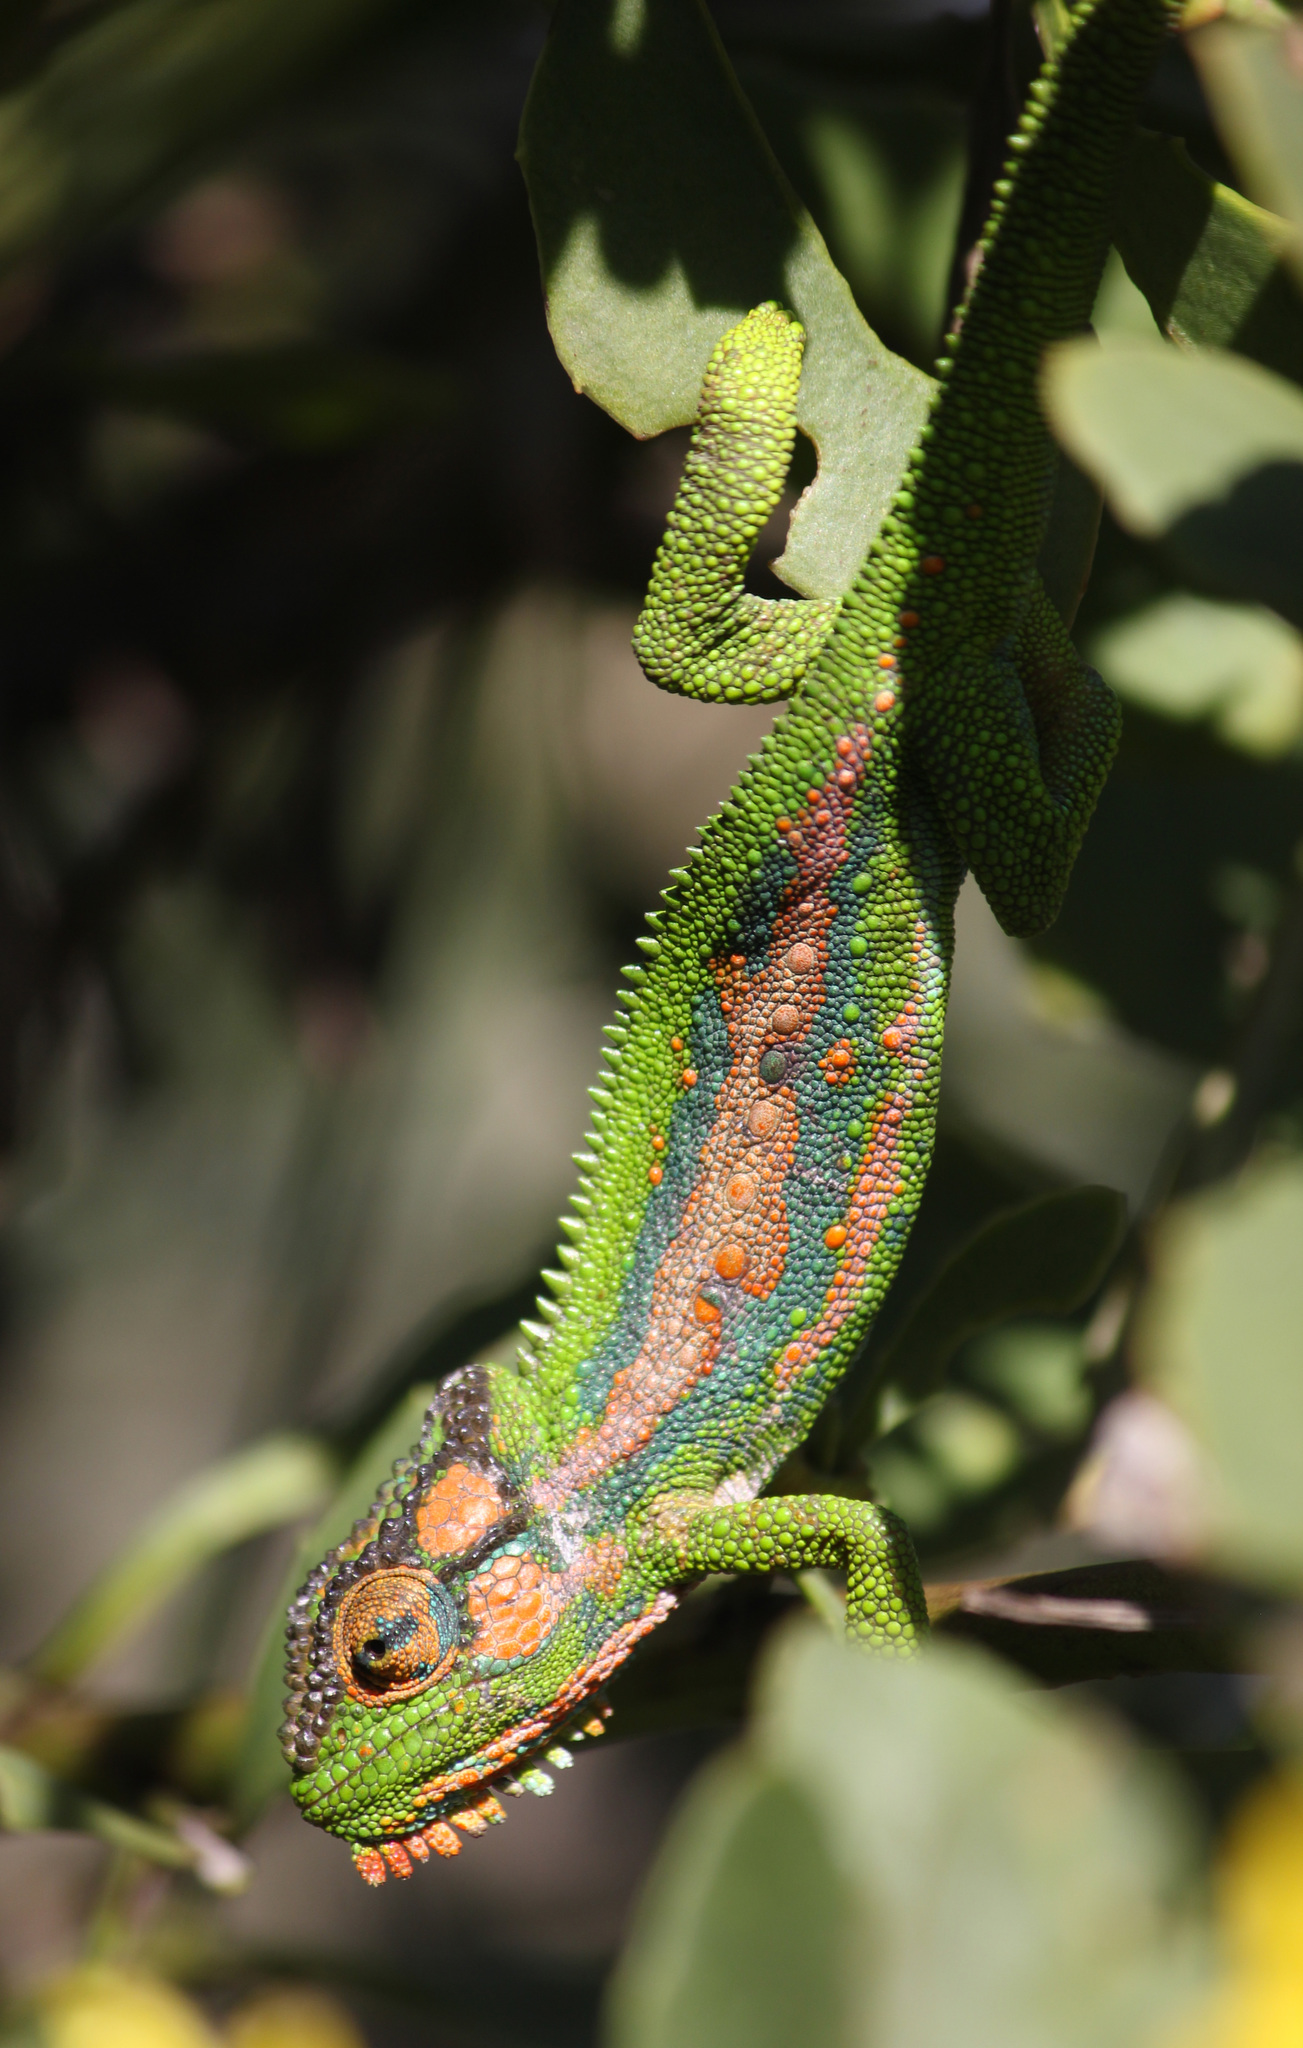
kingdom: Animalia
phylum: Chordata
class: Squamata
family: Chamaeleonidae
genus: Bradypodion
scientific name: Bradypodion pumilum
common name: Cape dwarf chameleon
